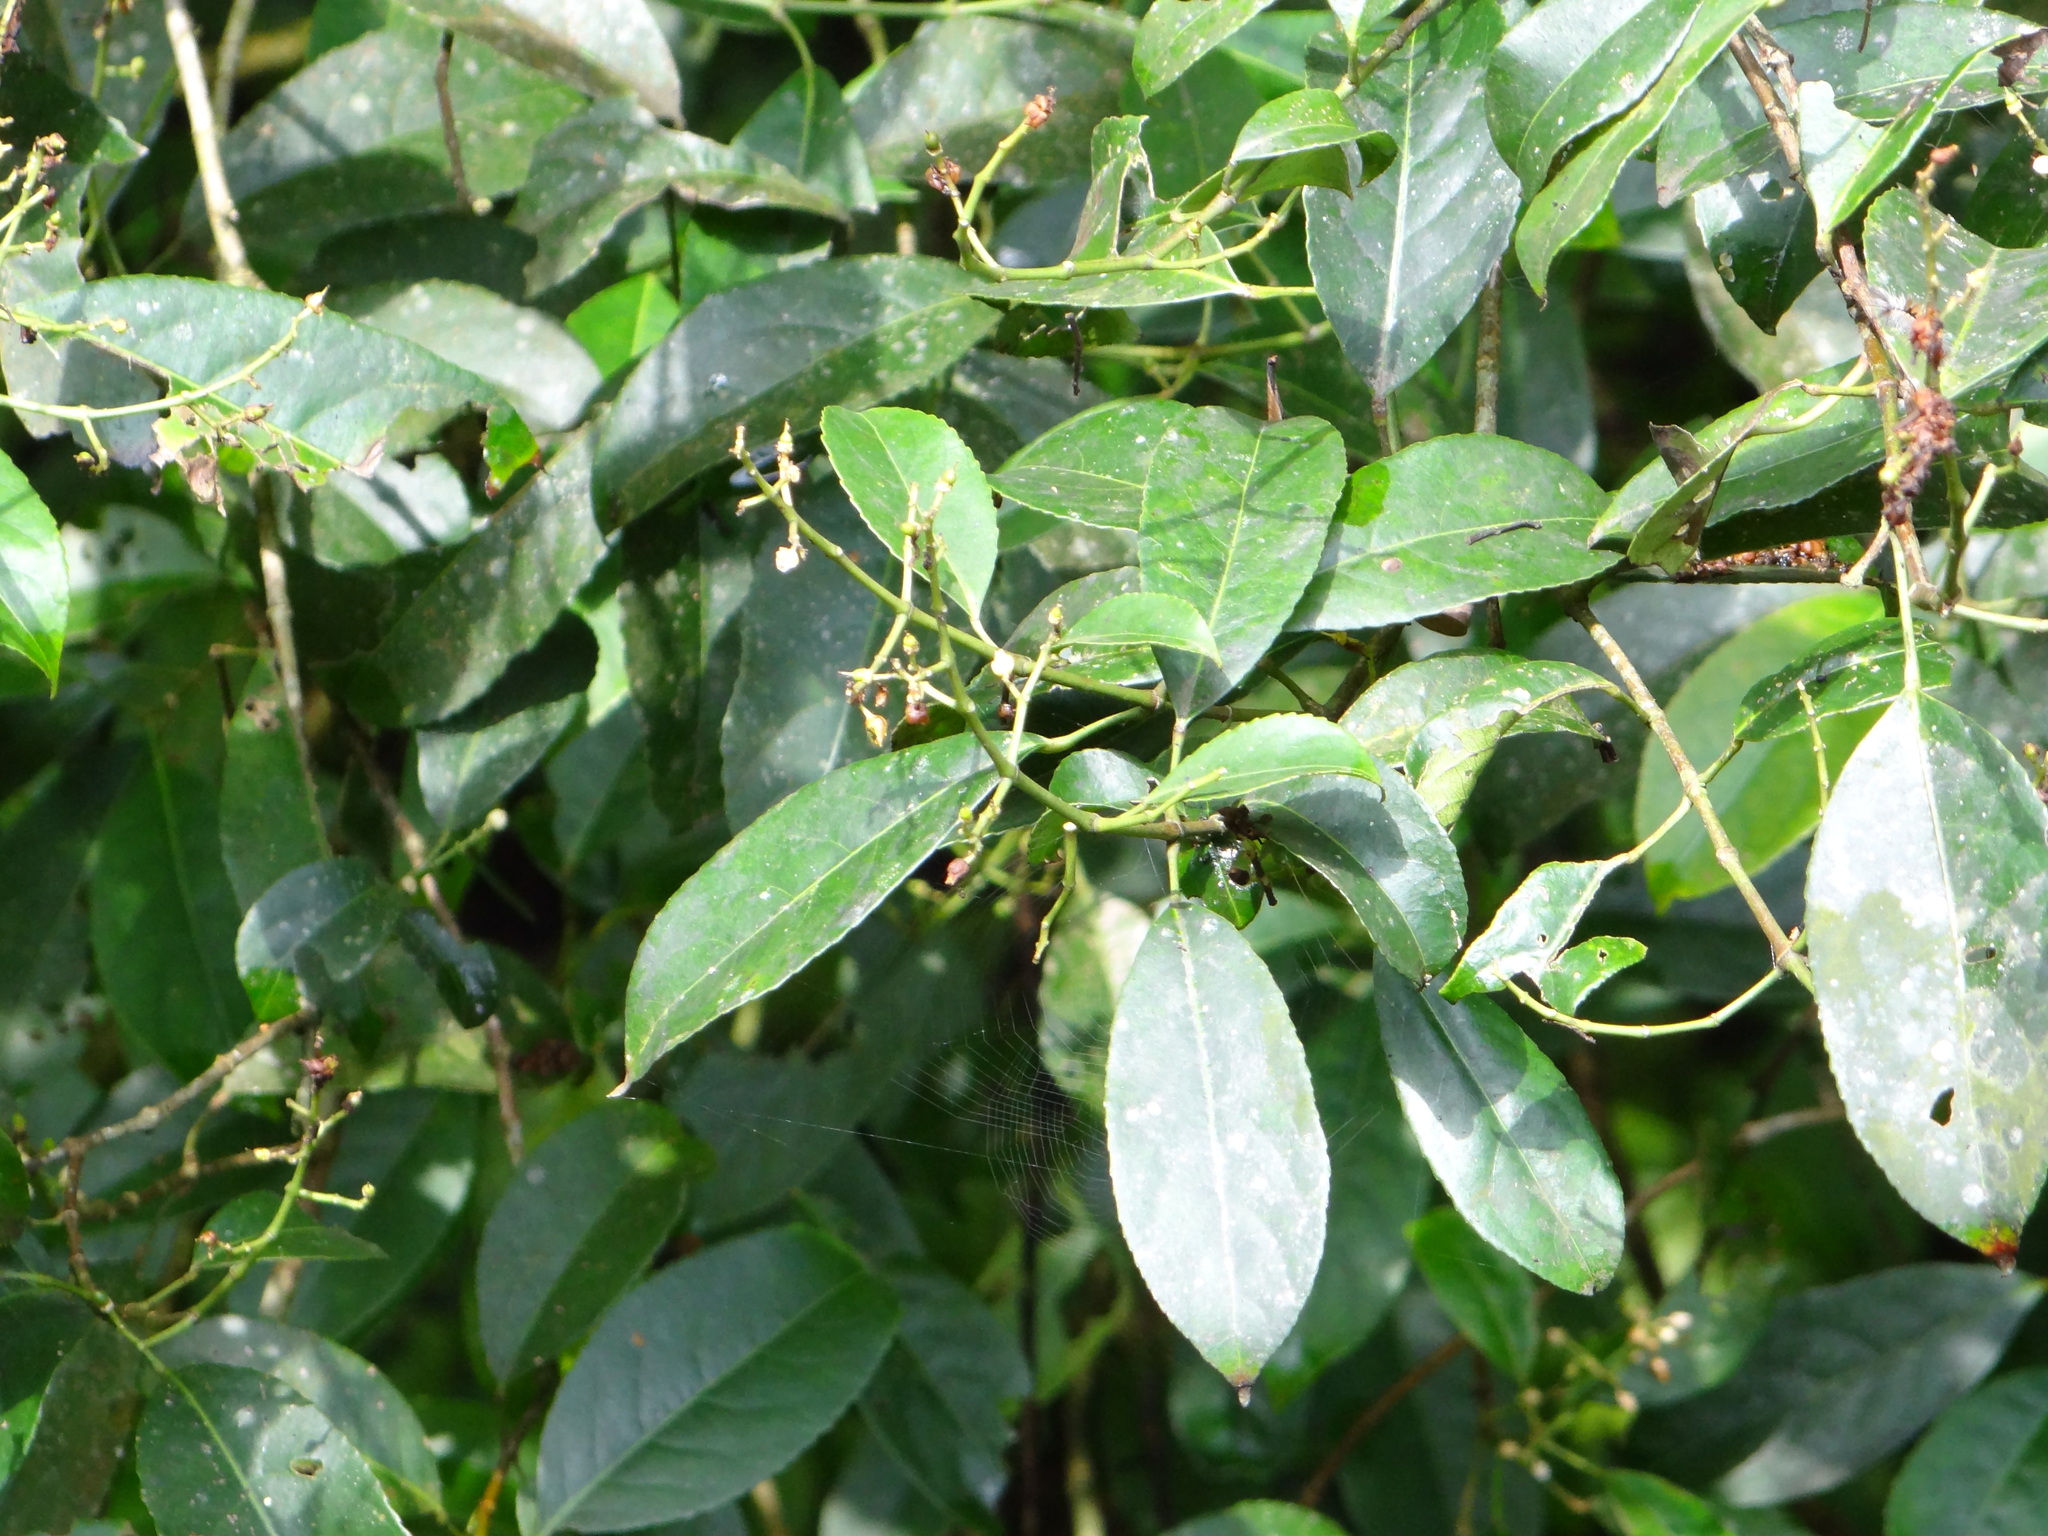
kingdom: Plantae
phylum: Tracheophyta
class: Magnoliopsida
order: Crossosomatales
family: Staphyleaceae
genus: Turpinia
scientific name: Turpinia formosana
